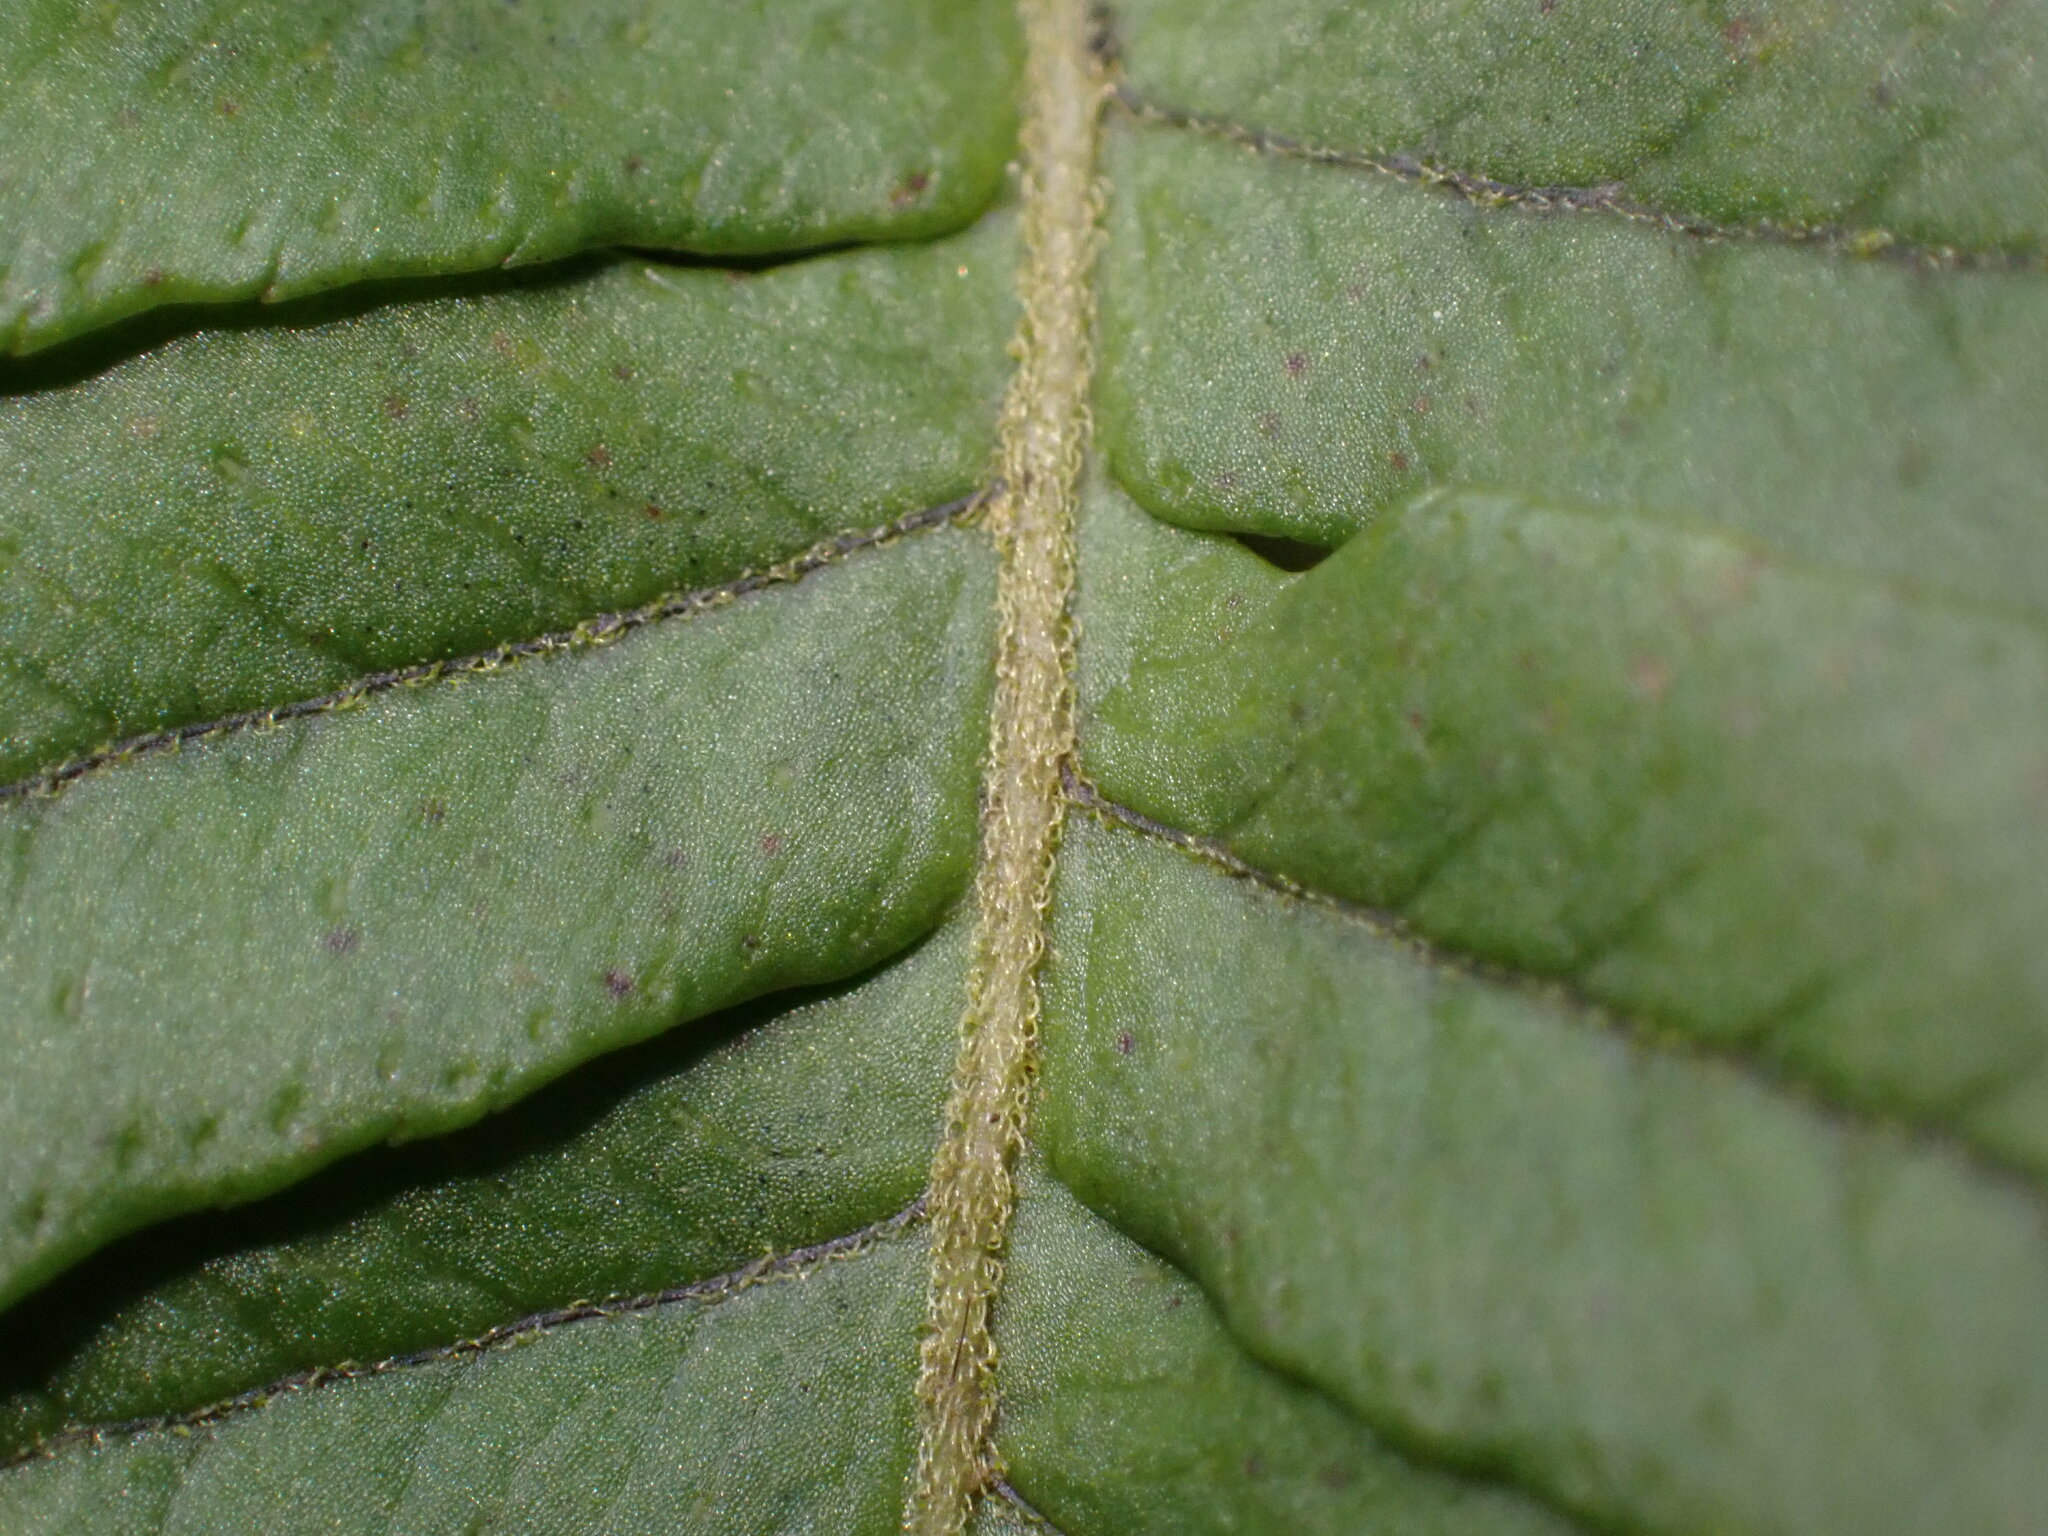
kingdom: Plantae
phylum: Tracheophyta
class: Polypodiopsida
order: Polypodiales
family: Polypodiaceae
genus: Polypodium
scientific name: Polypodium glycyrrhiza
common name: Licorice fern
